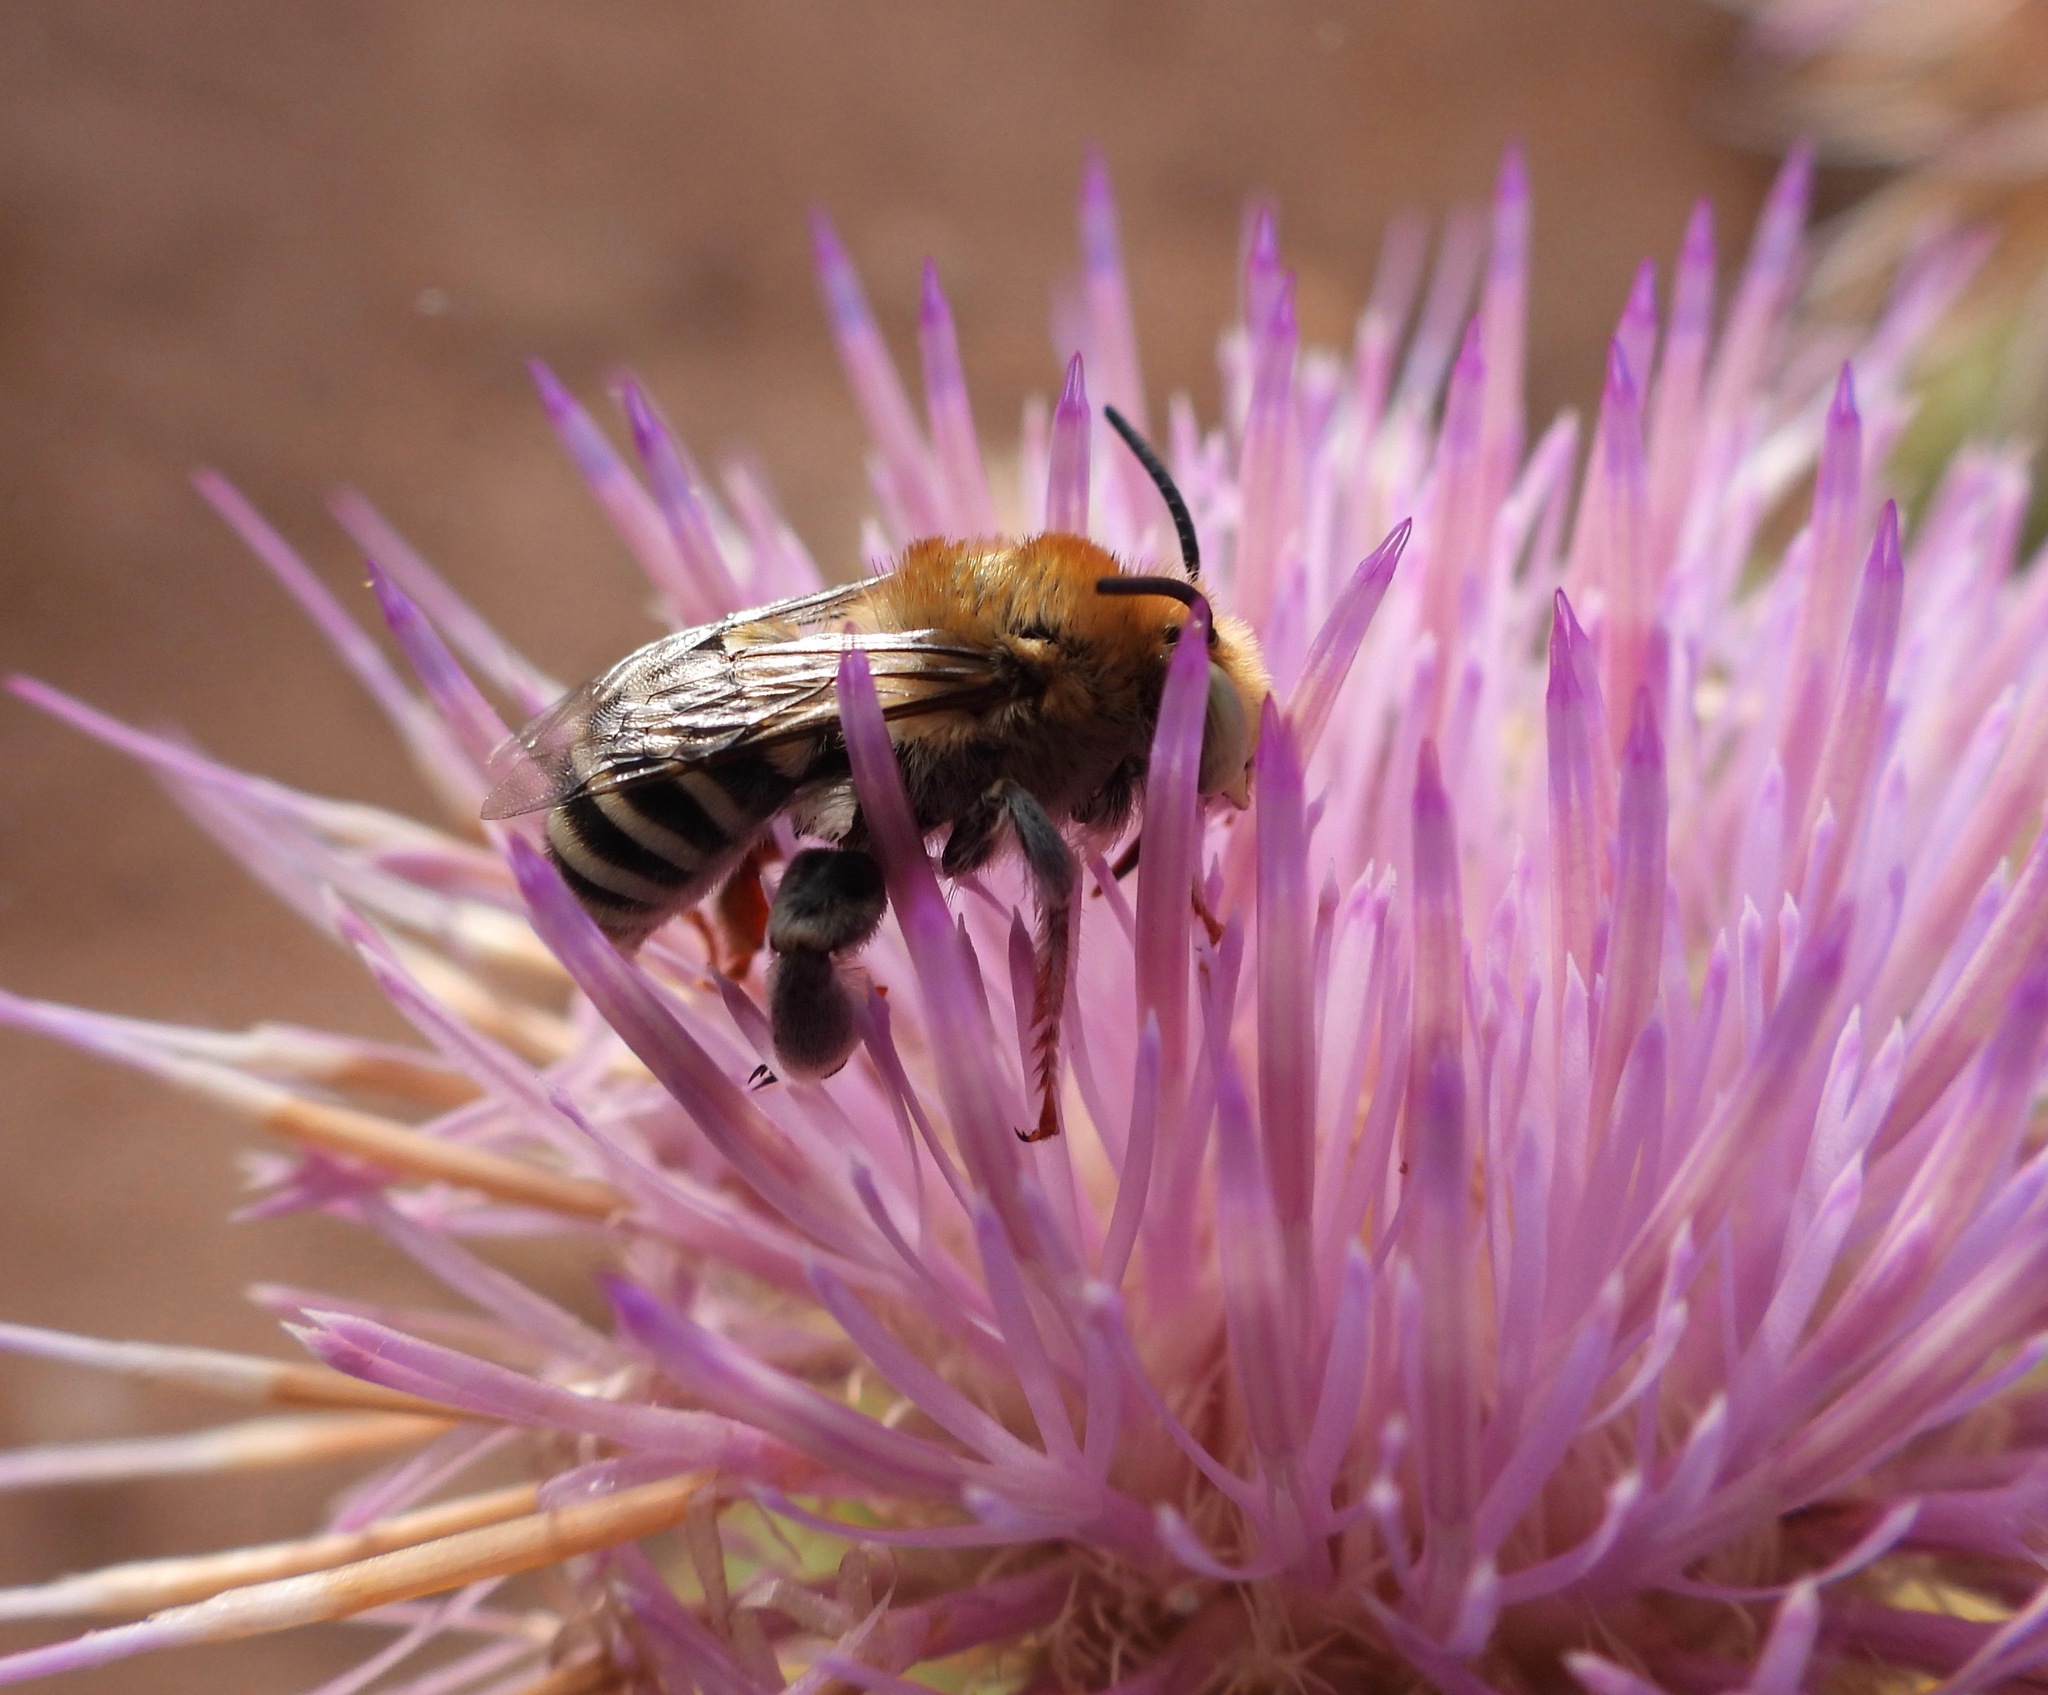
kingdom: Animalia
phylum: Arthropoda
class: Insecta
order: Hymenoptera
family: Apidae
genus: Anthophora
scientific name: Anthophora californica
